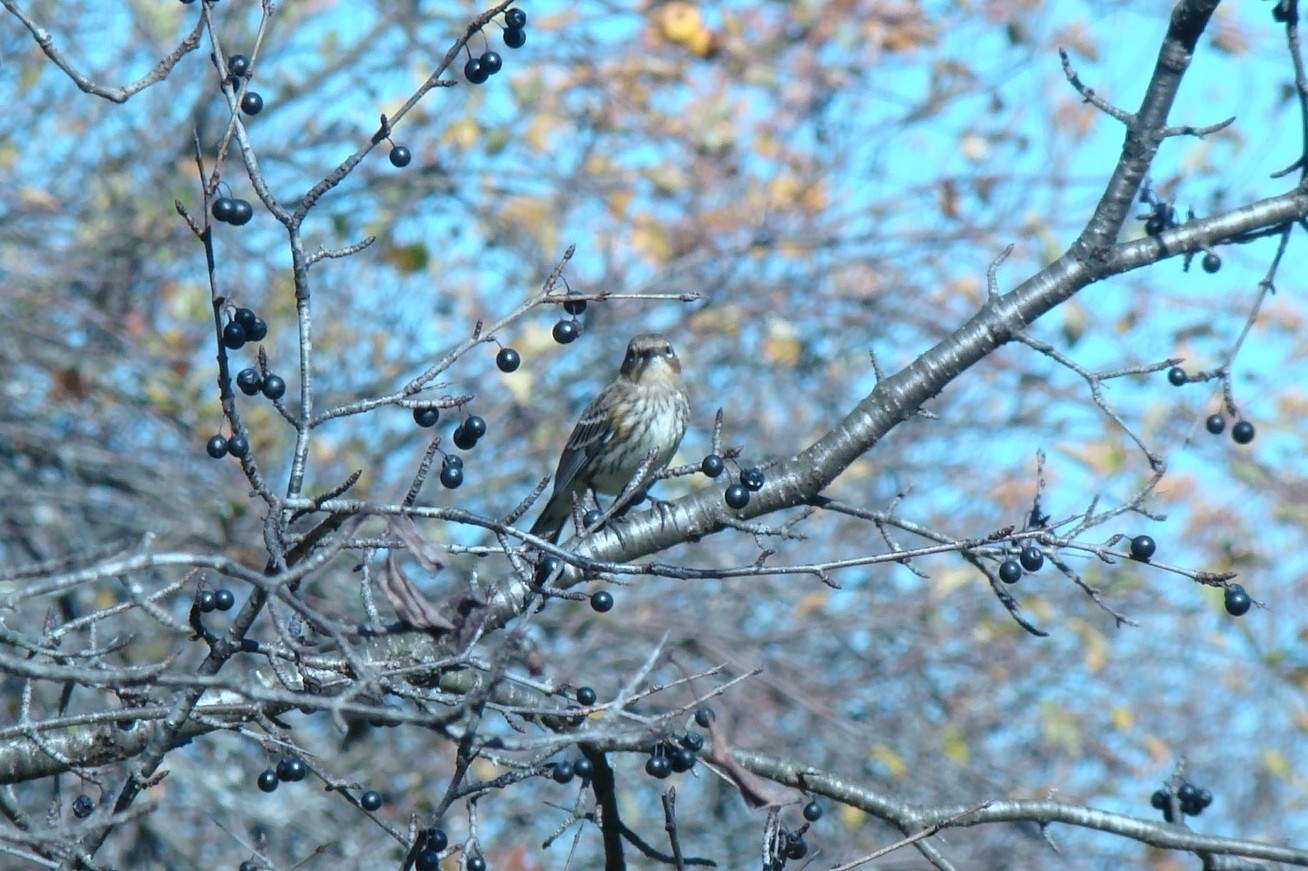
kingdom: Animalia
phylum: Chordata
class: Aves
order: Passeriformes
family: Parulidae
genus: Setophaga
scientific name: Setophaga coronata
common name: Myrtle warbler
